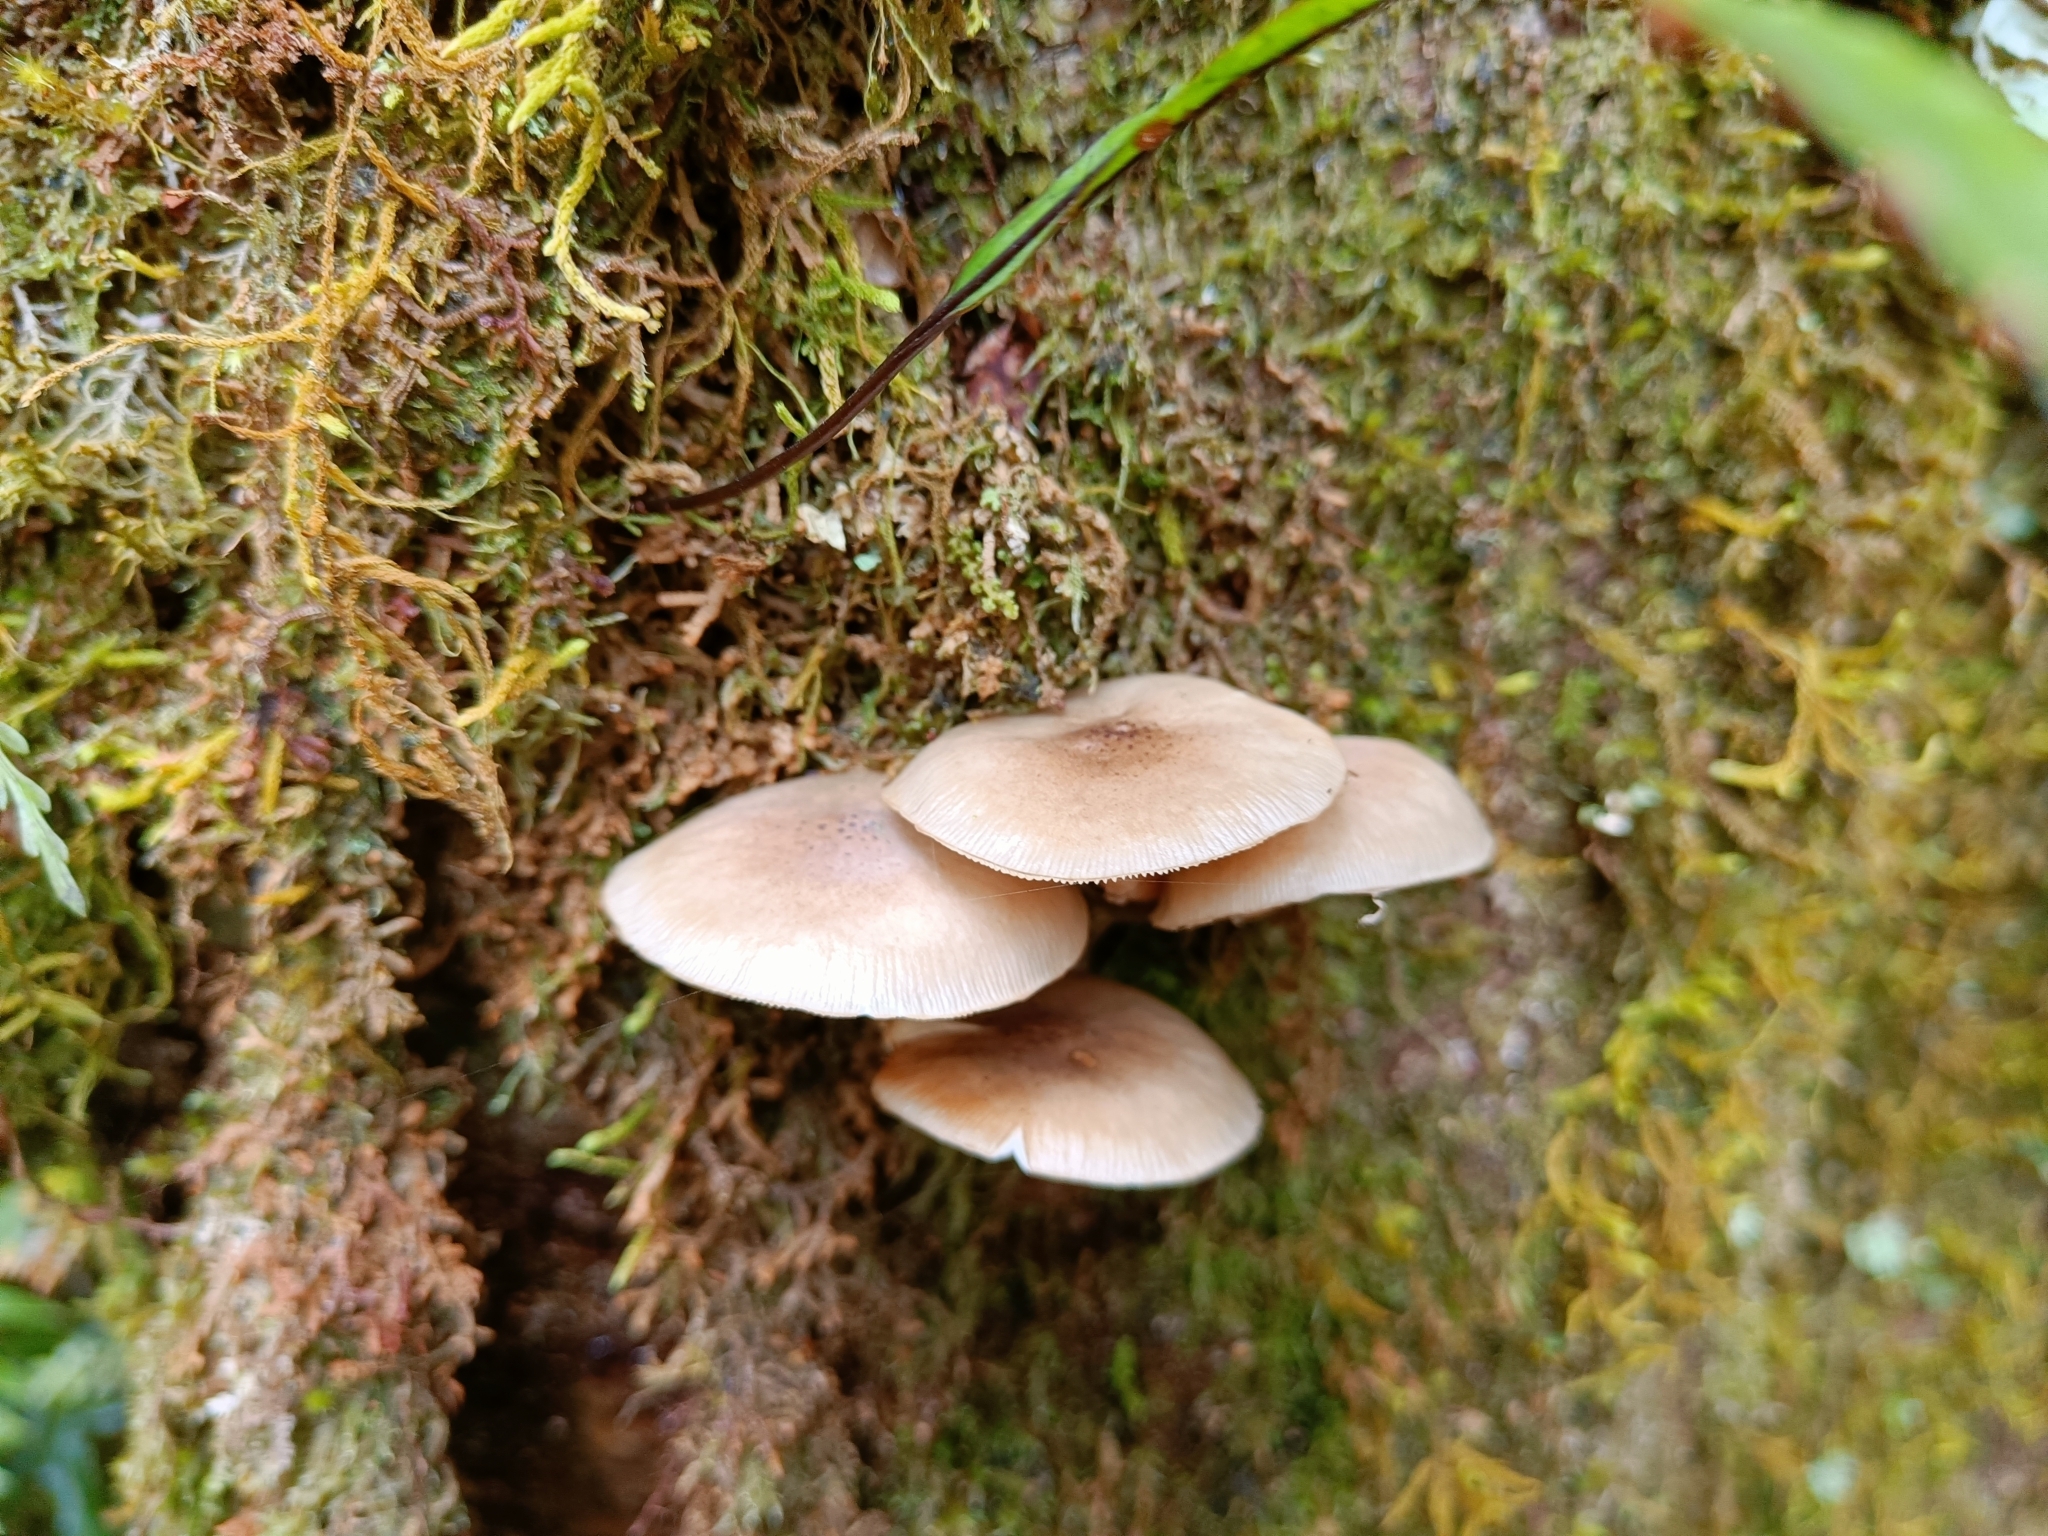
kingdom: Fungi
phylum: Basidiomycota
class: Agaricomycetes
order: Agaricales
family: Physalacriaceae
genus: Armillaria
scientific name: Armillaria novae-zelandiae
